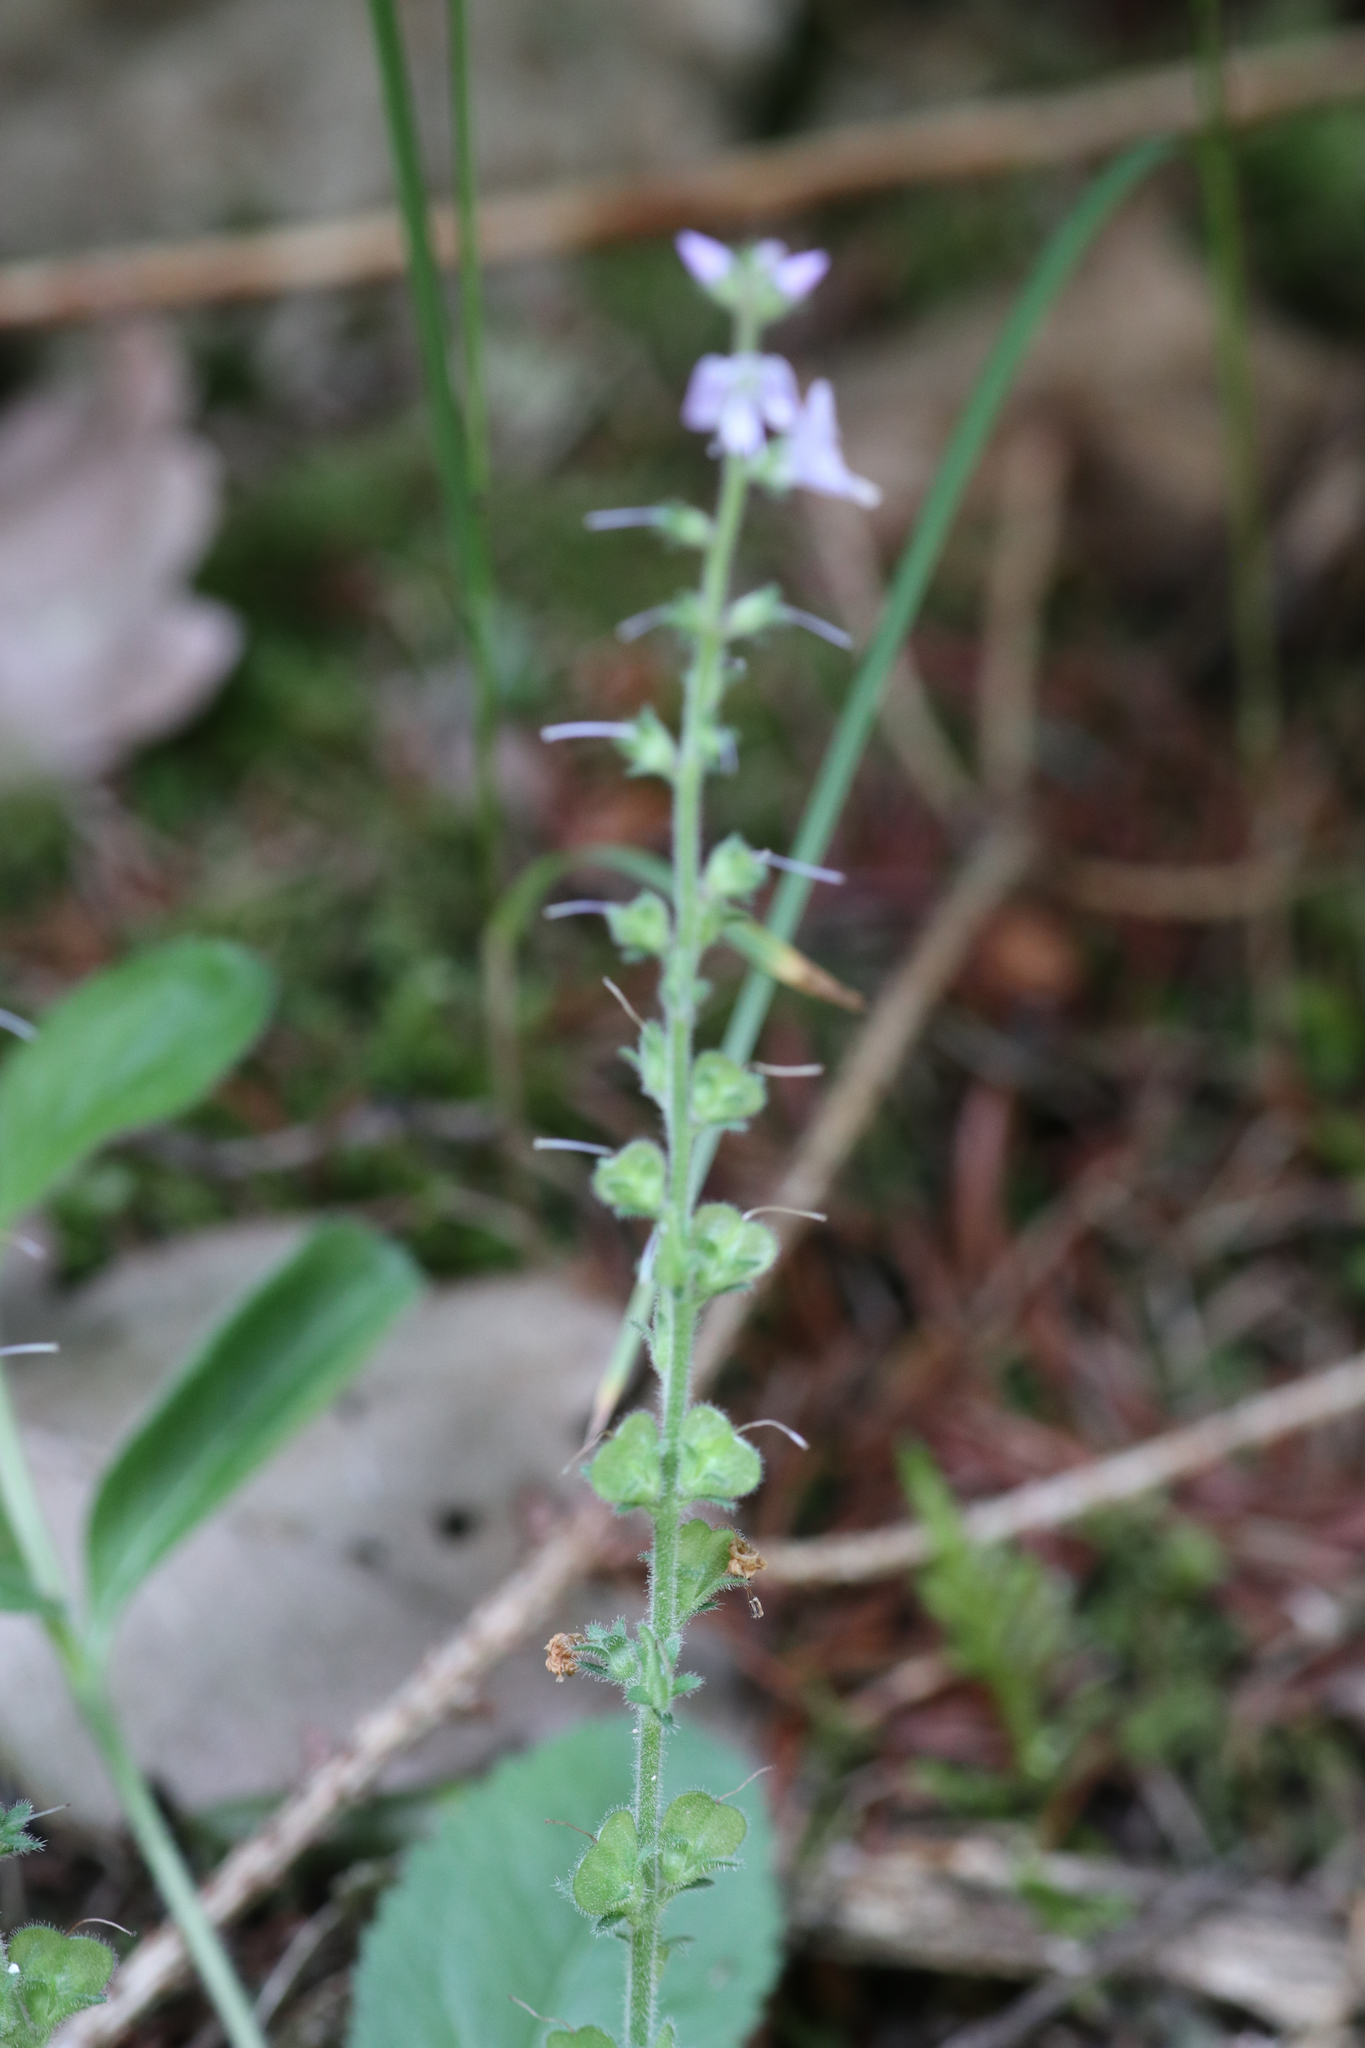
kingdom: Plantae
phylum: Tracheophyta
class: Magnoliopsida
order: Lamiales
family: Plantaginaceae
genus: Veronica
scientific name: Veronica officinalis
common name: Common speedwell
